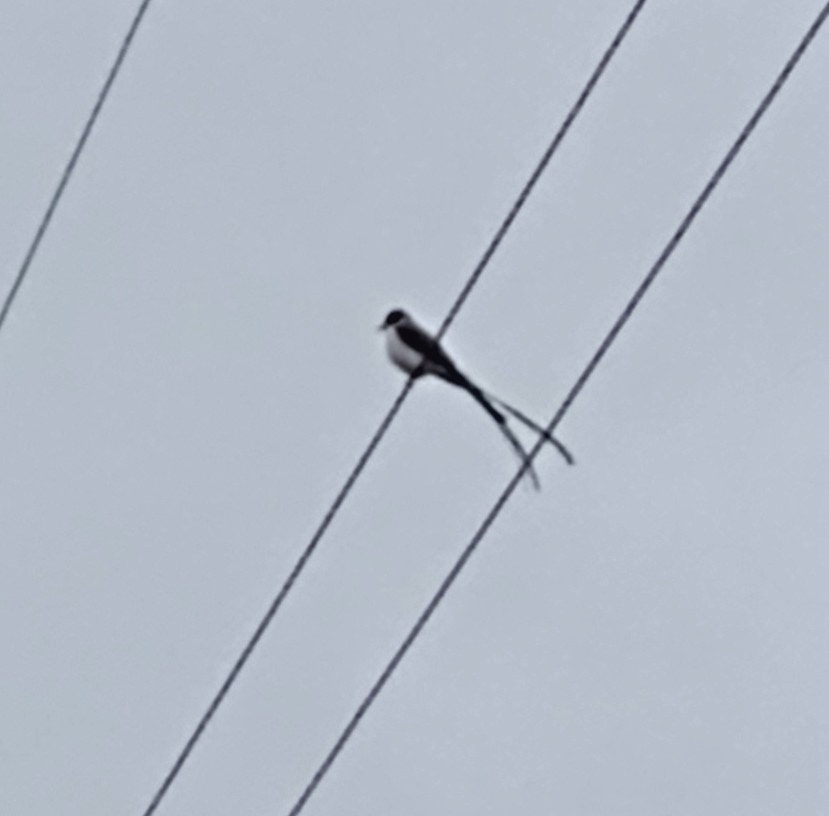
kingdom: Animalia
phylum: Chordata
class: Aves
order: Passeriformes
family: Tyrannidae
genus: Tyrannus
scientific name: Tyrannus savana
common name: Fork-tailed flycatcher
